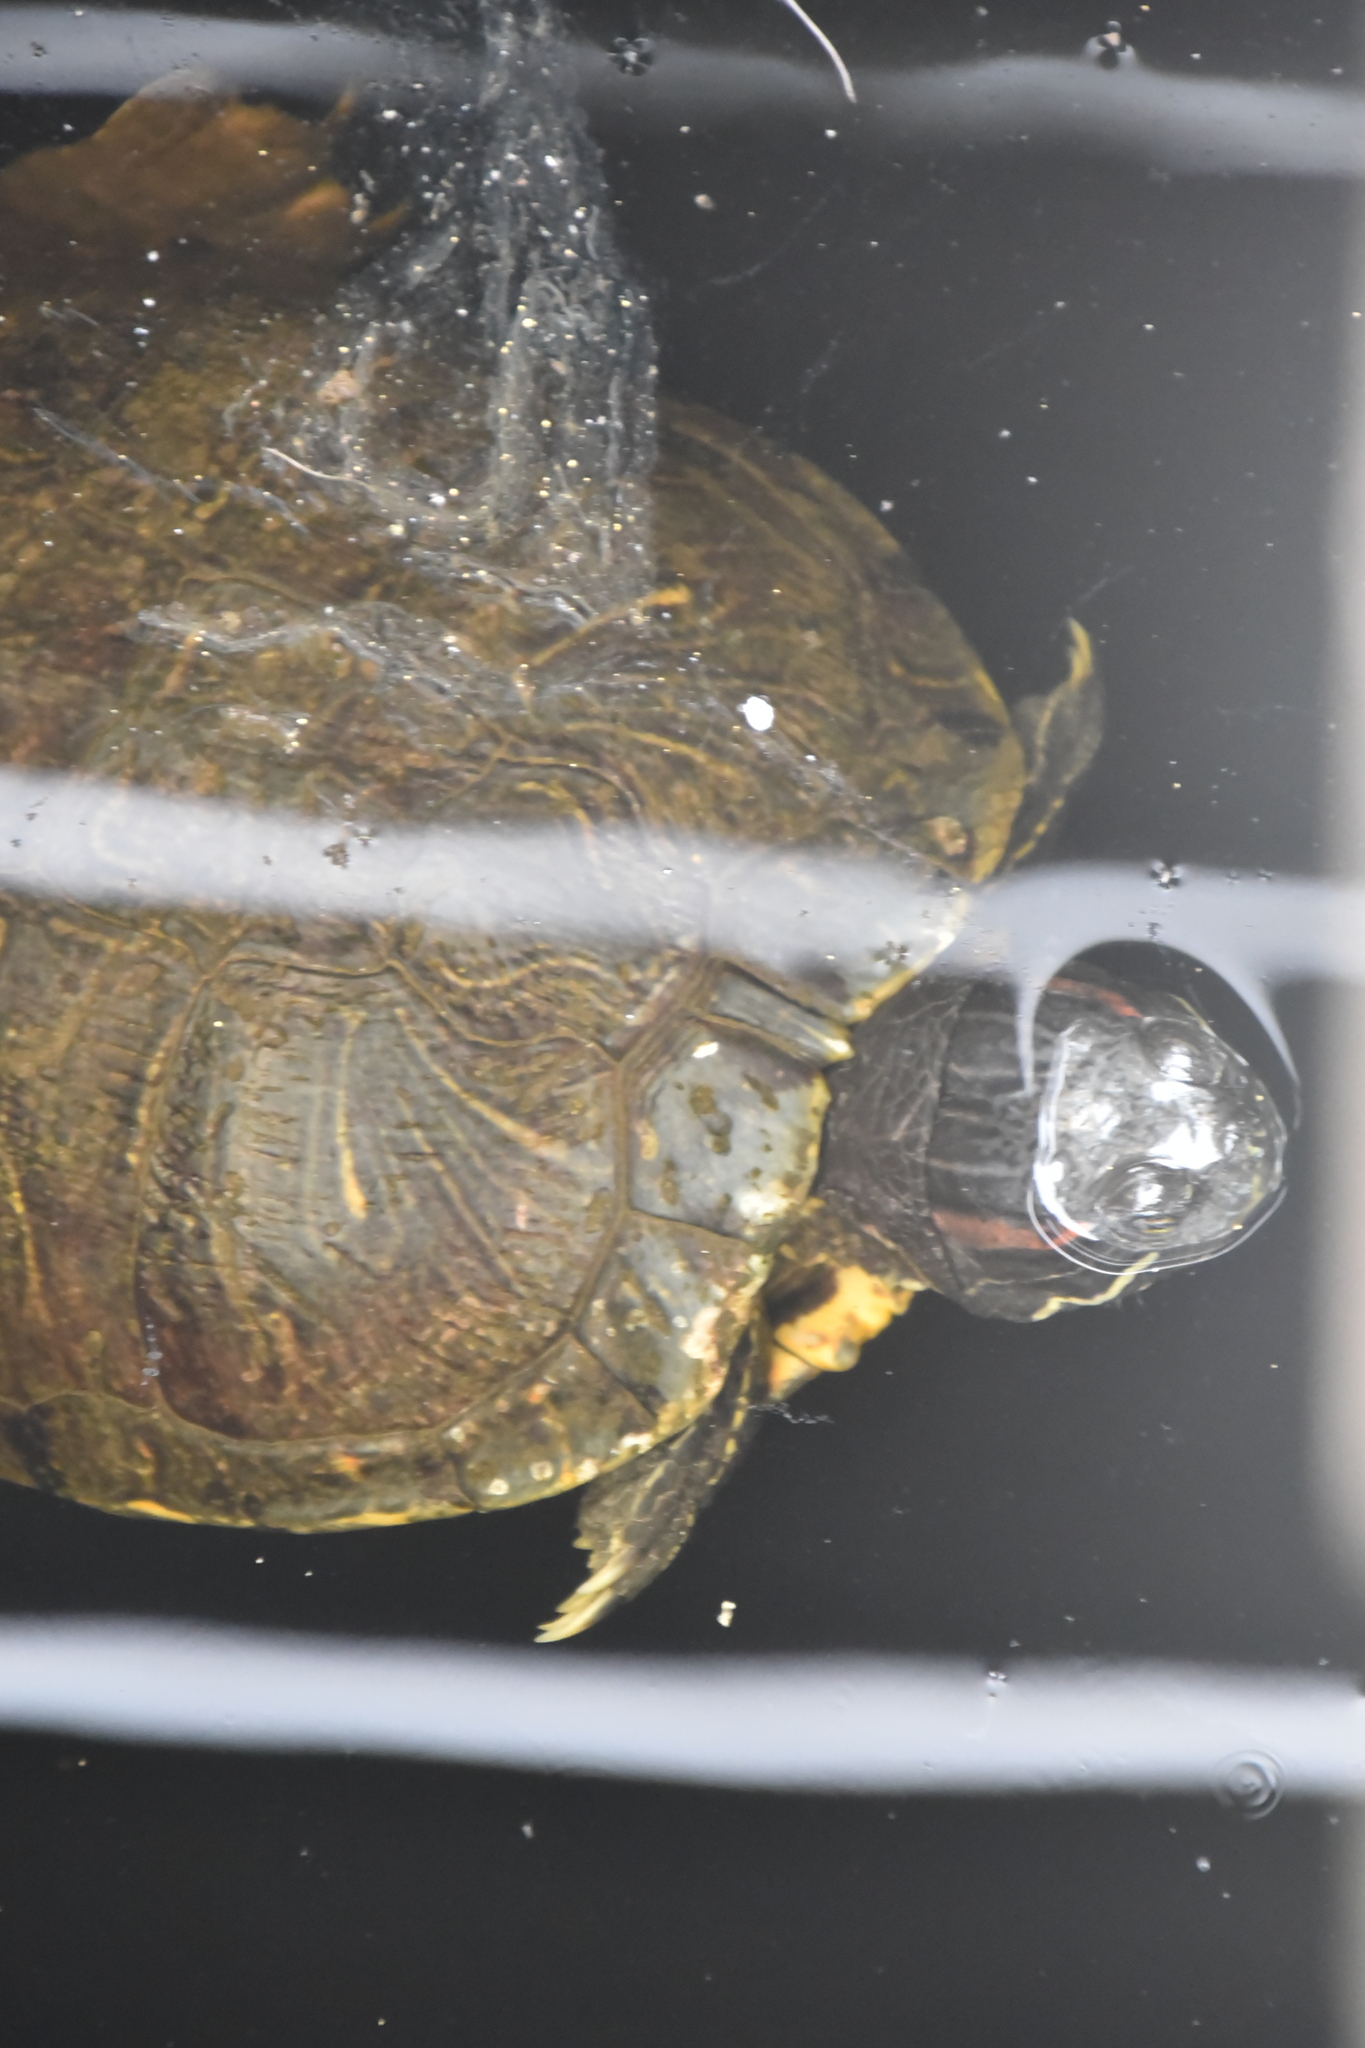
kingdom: Animalia
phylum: Chordata
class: Testudines
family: Emydidae
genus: Trachemys
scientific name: Trachemys scripta
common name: Slider
